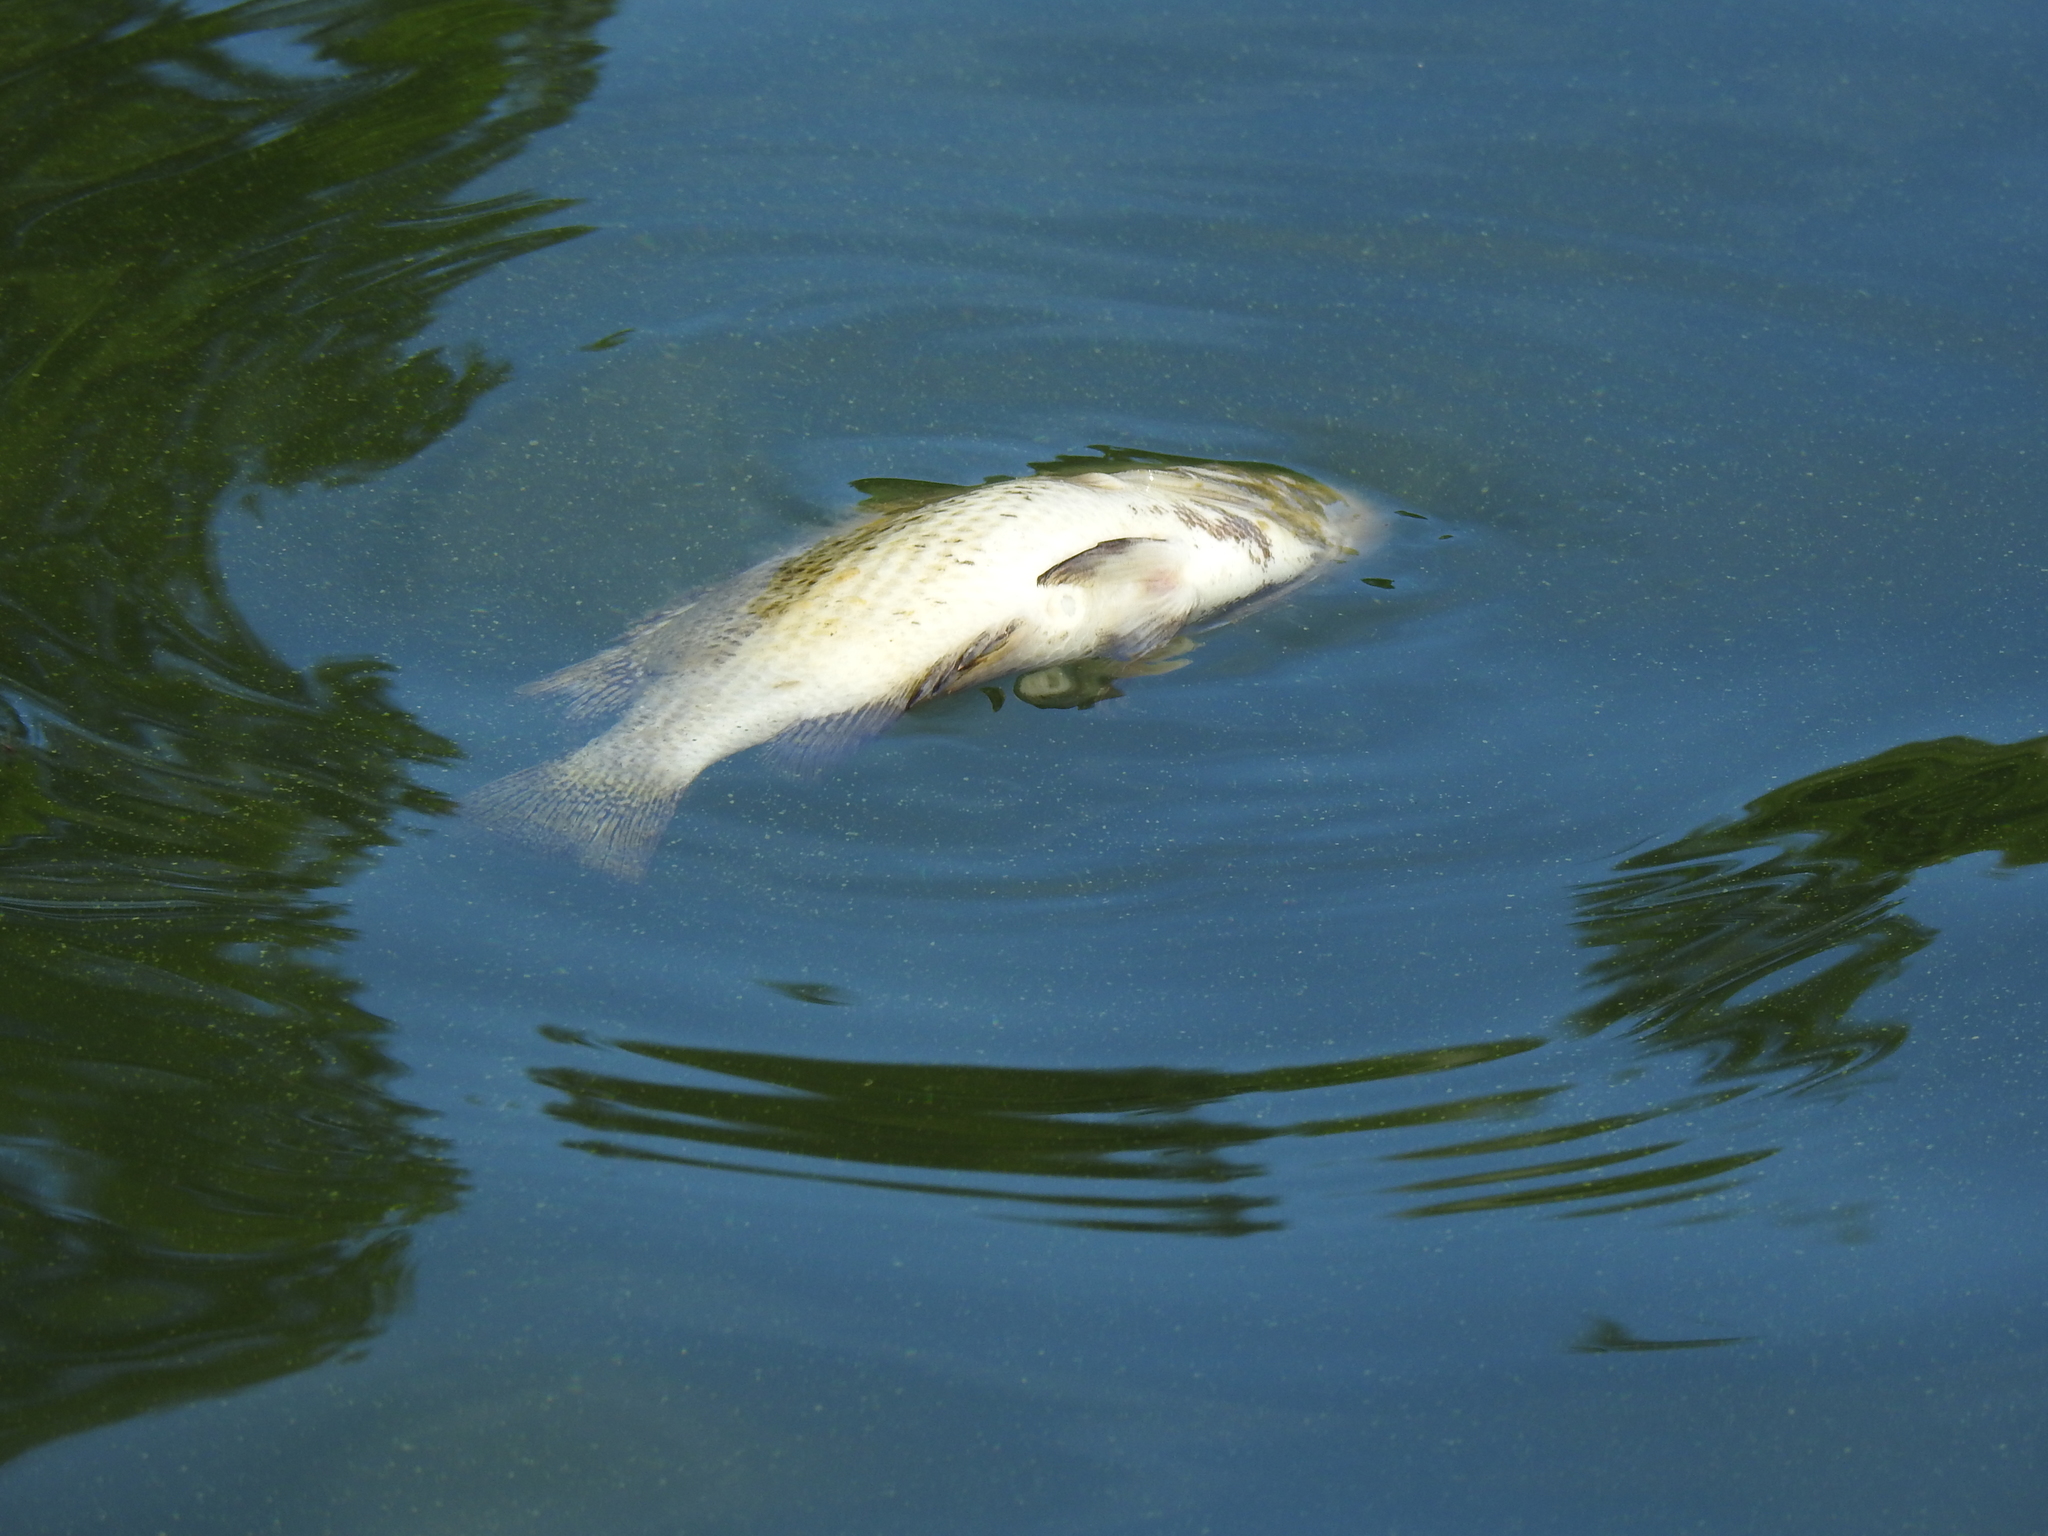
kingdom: Animalia
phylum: Chordata
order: Perciformes
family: Centrarchidae
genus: Ambloplites
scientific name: Ambloplites rupestris
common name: Rock bass
